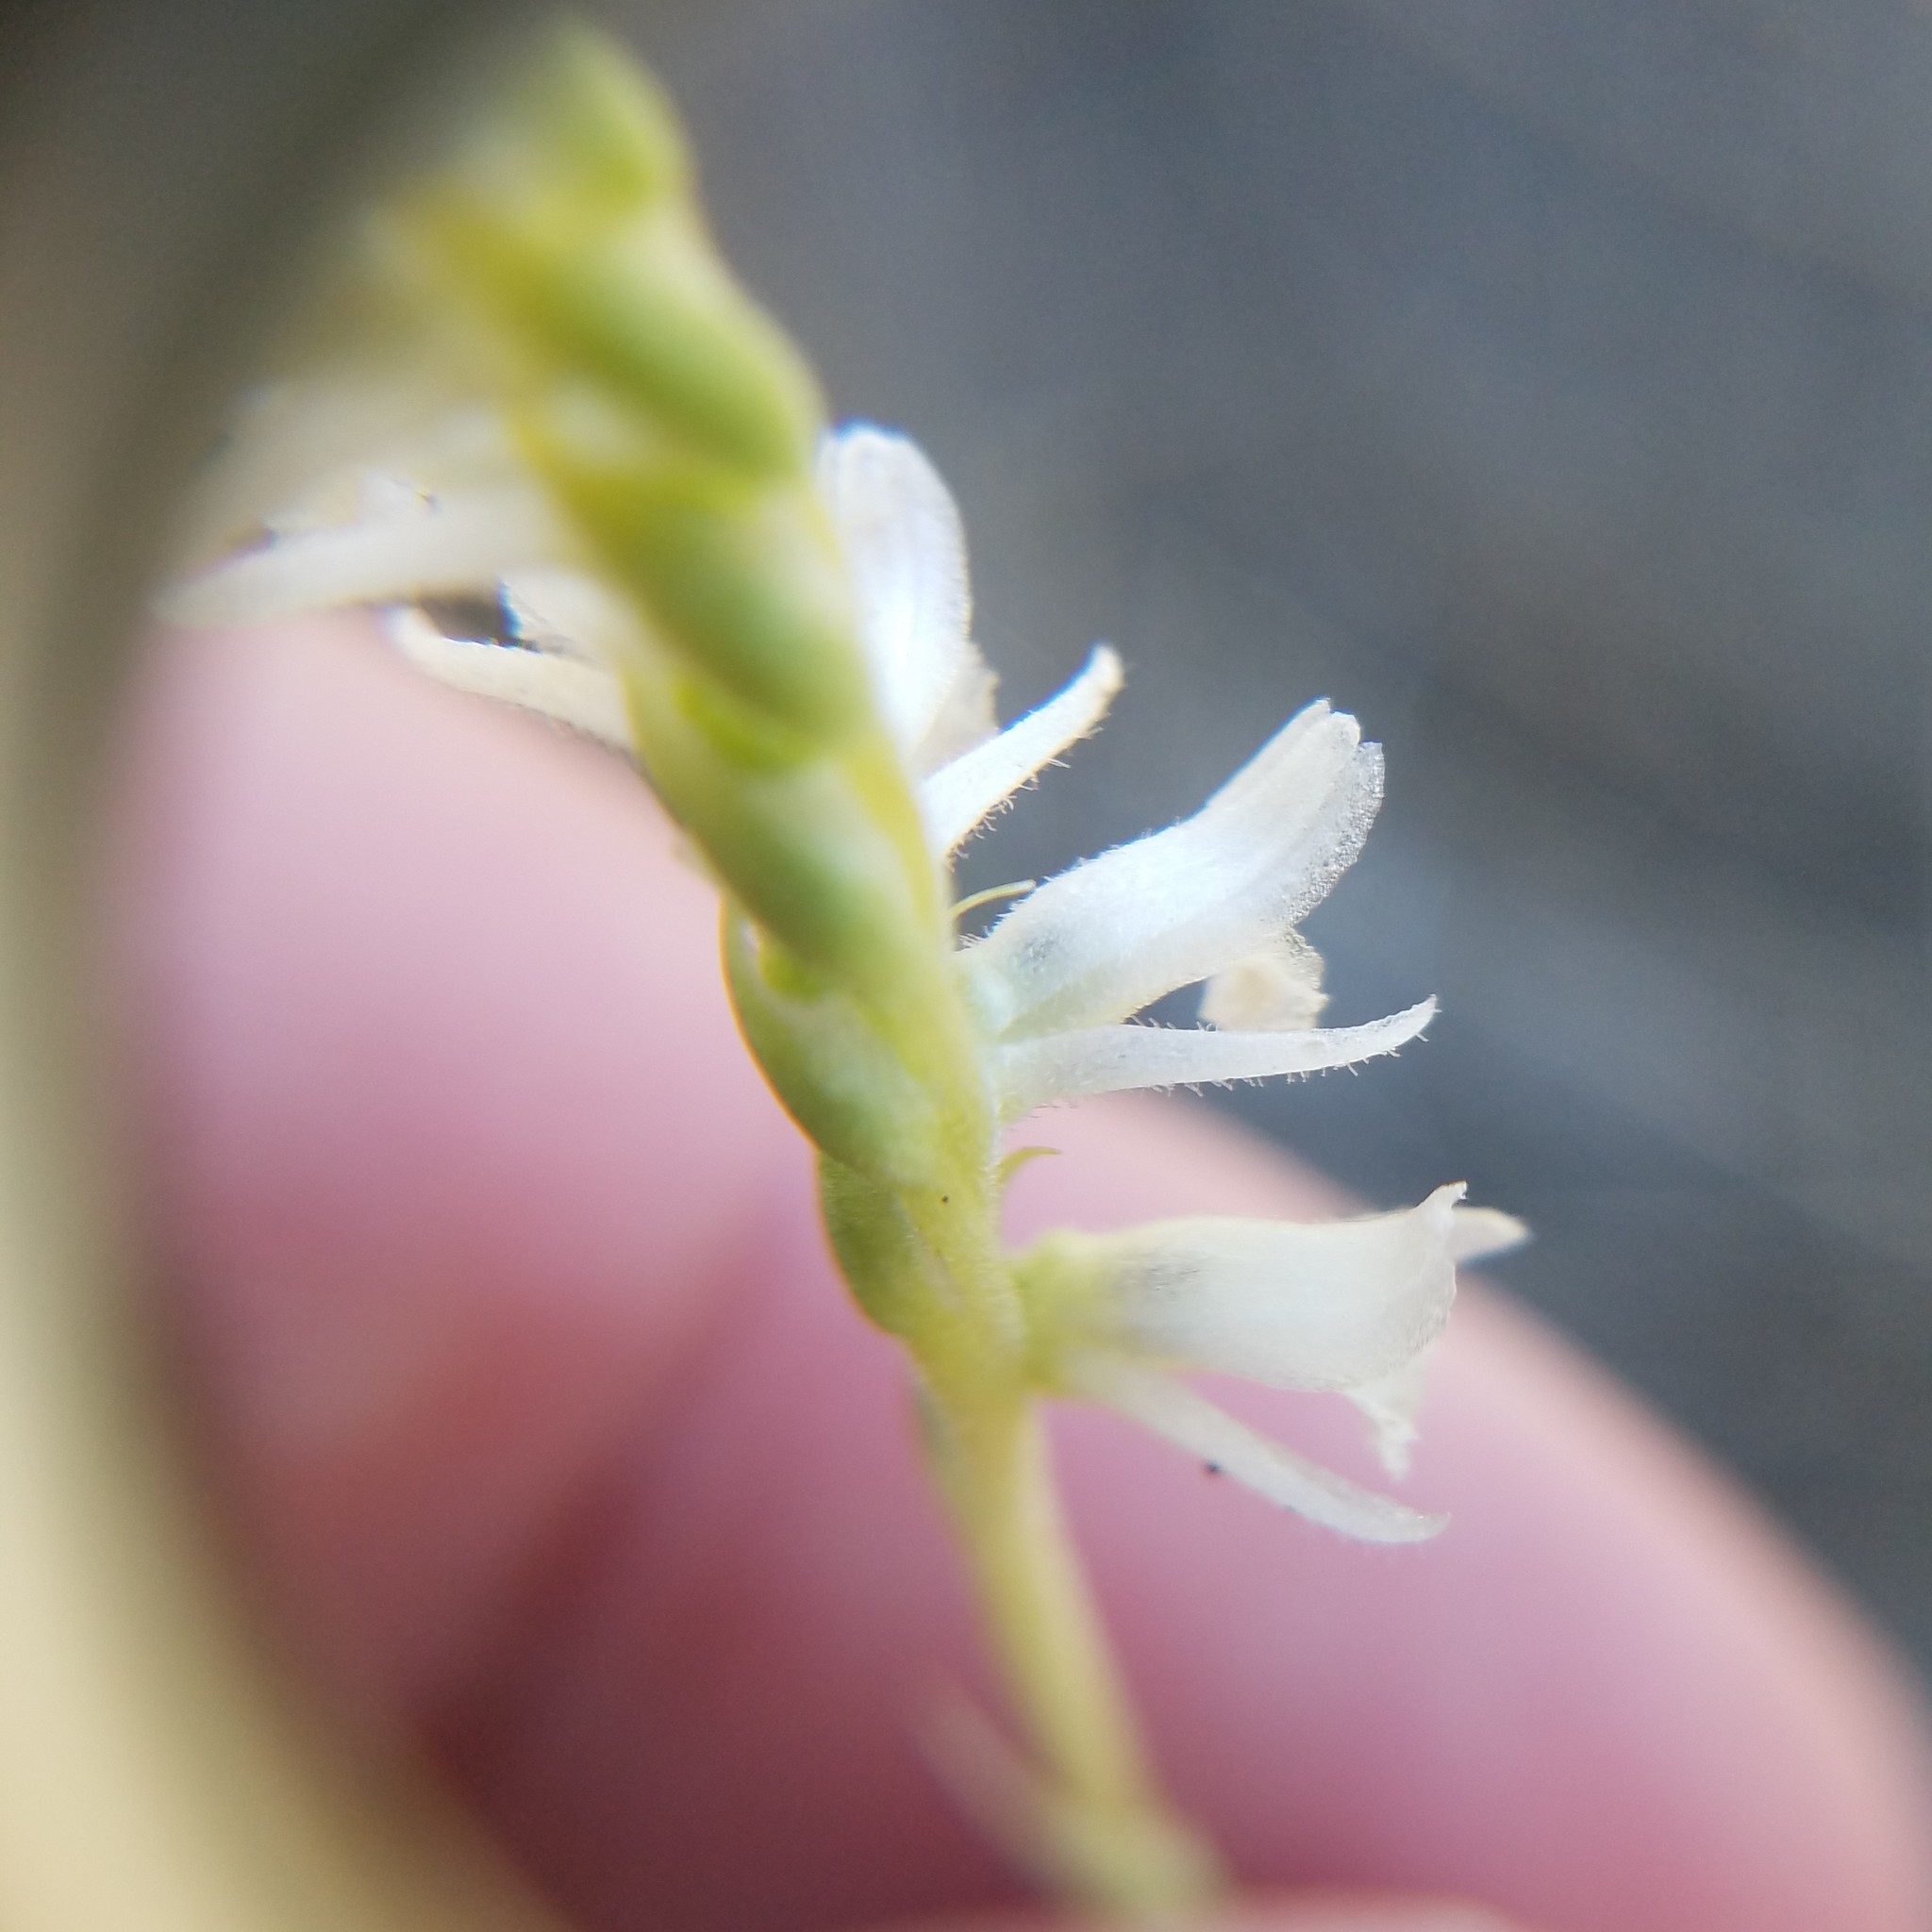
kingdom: Plantae
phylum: Tracheophyta
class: Liliopsida
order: Asparagales
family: Orchidaceae
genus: Spiranthes
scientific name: Spiranthes vernalis
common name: Spring ladies'-tresses
